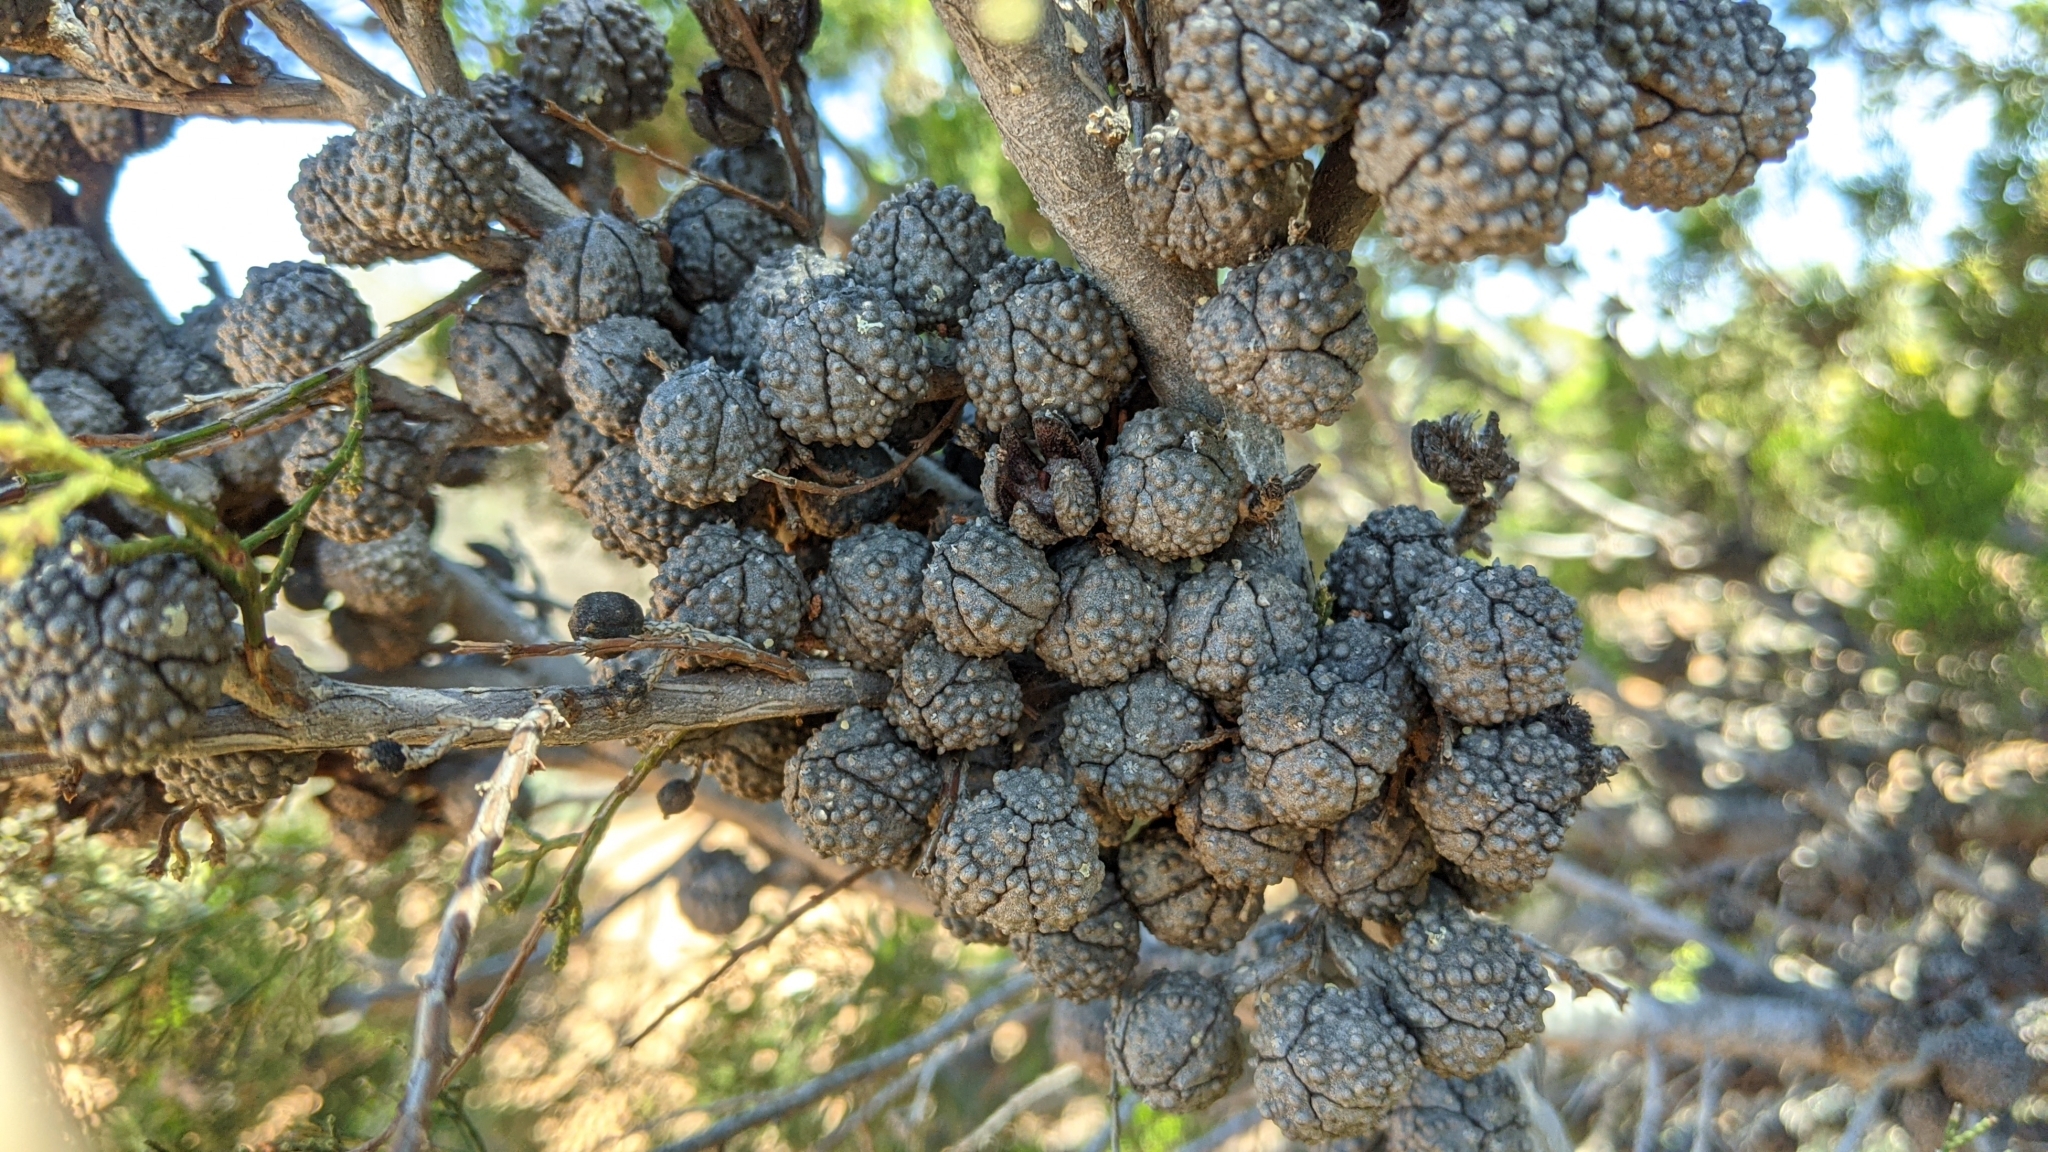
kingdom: Plantae
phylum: Tracheophyta
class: Pinopsida
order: Pinales
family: Cupressaceae
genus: Callitris
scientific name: Callitris verrucosa
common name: Scrub cypress-pine
